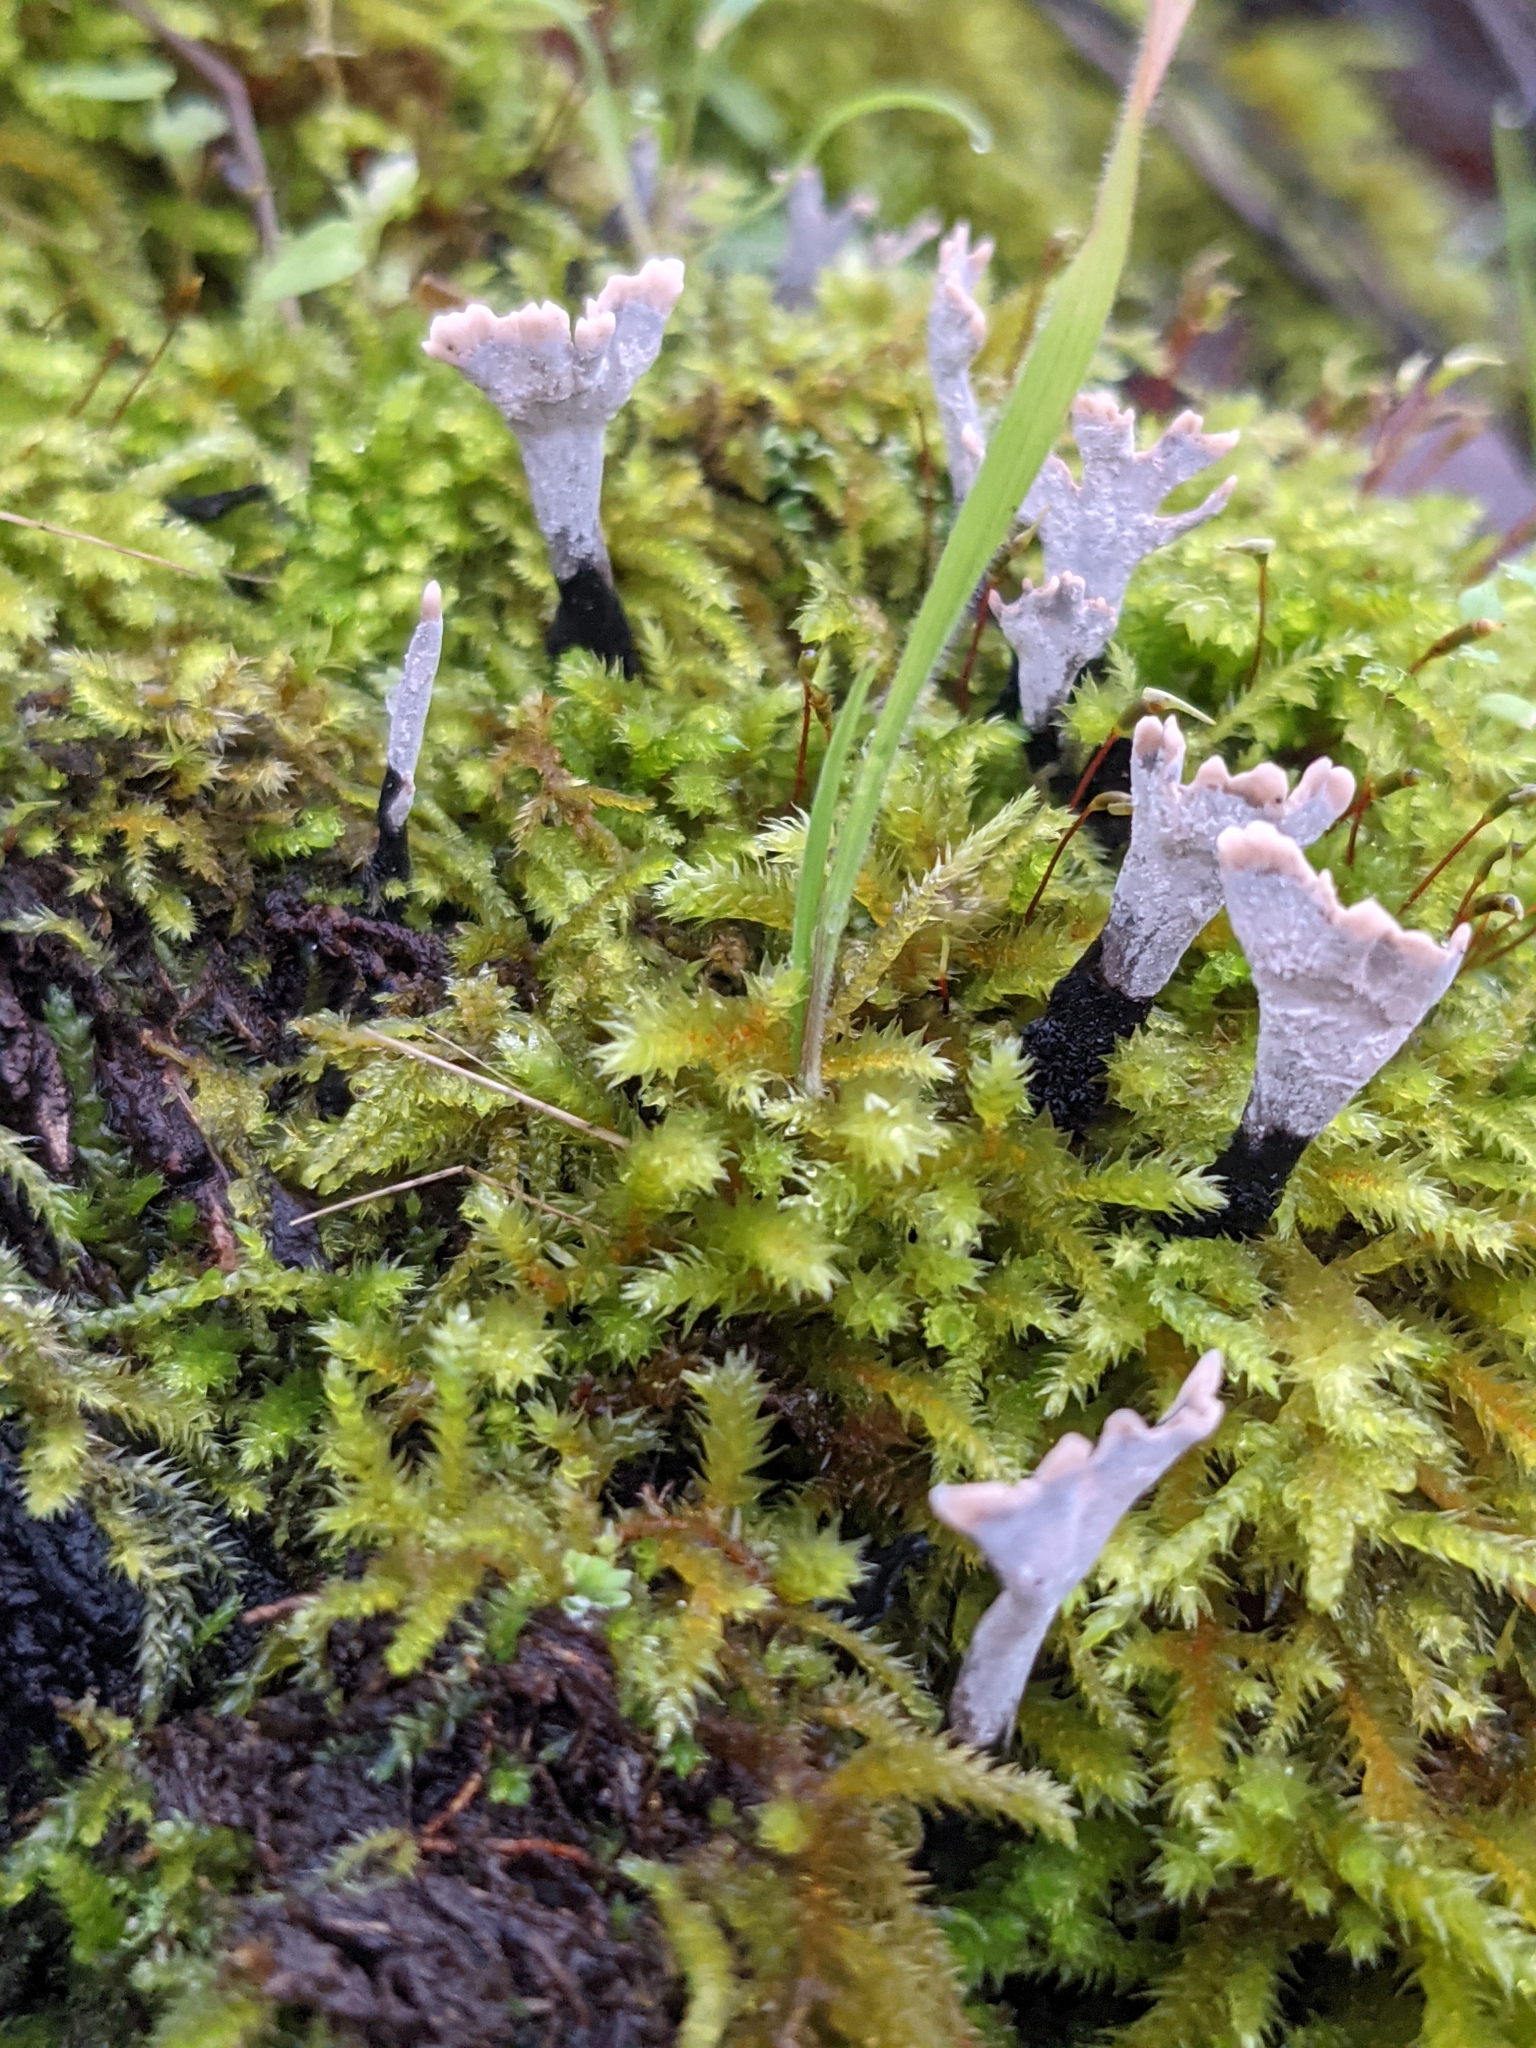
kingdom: Fungi
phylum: Ascomycota
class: Sordariomycetes
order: Xylariales
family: Xylariaceae
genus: Xylaria
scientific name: Xylaria hypoxylon
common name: Candle-snuff fungus
